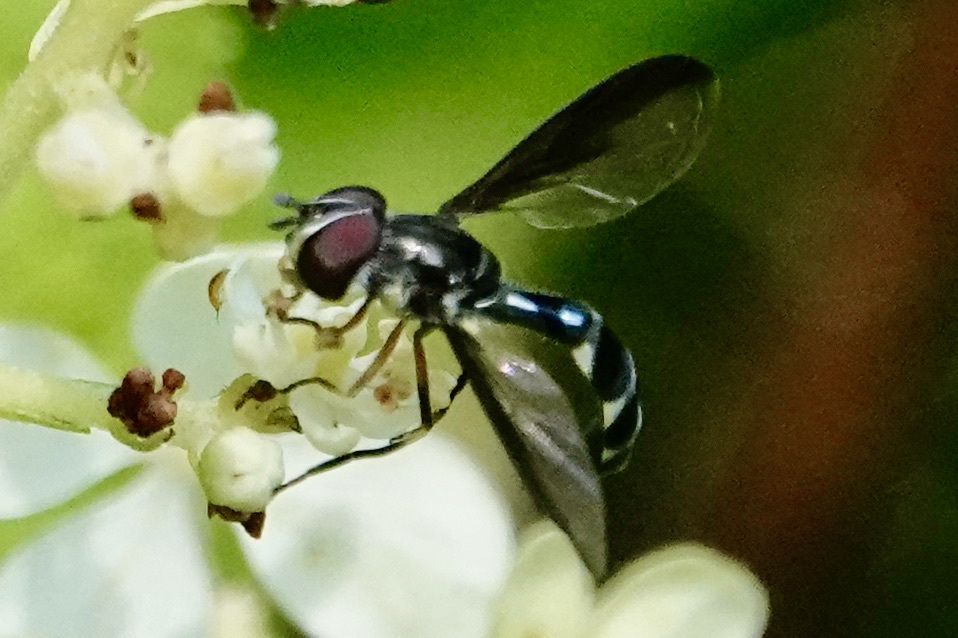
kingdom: Animalia
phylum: Arthropoda
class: Insecta
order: Diptera
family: Syrphidae
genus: Ocyptamus
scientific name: Ocyptamus costatus
